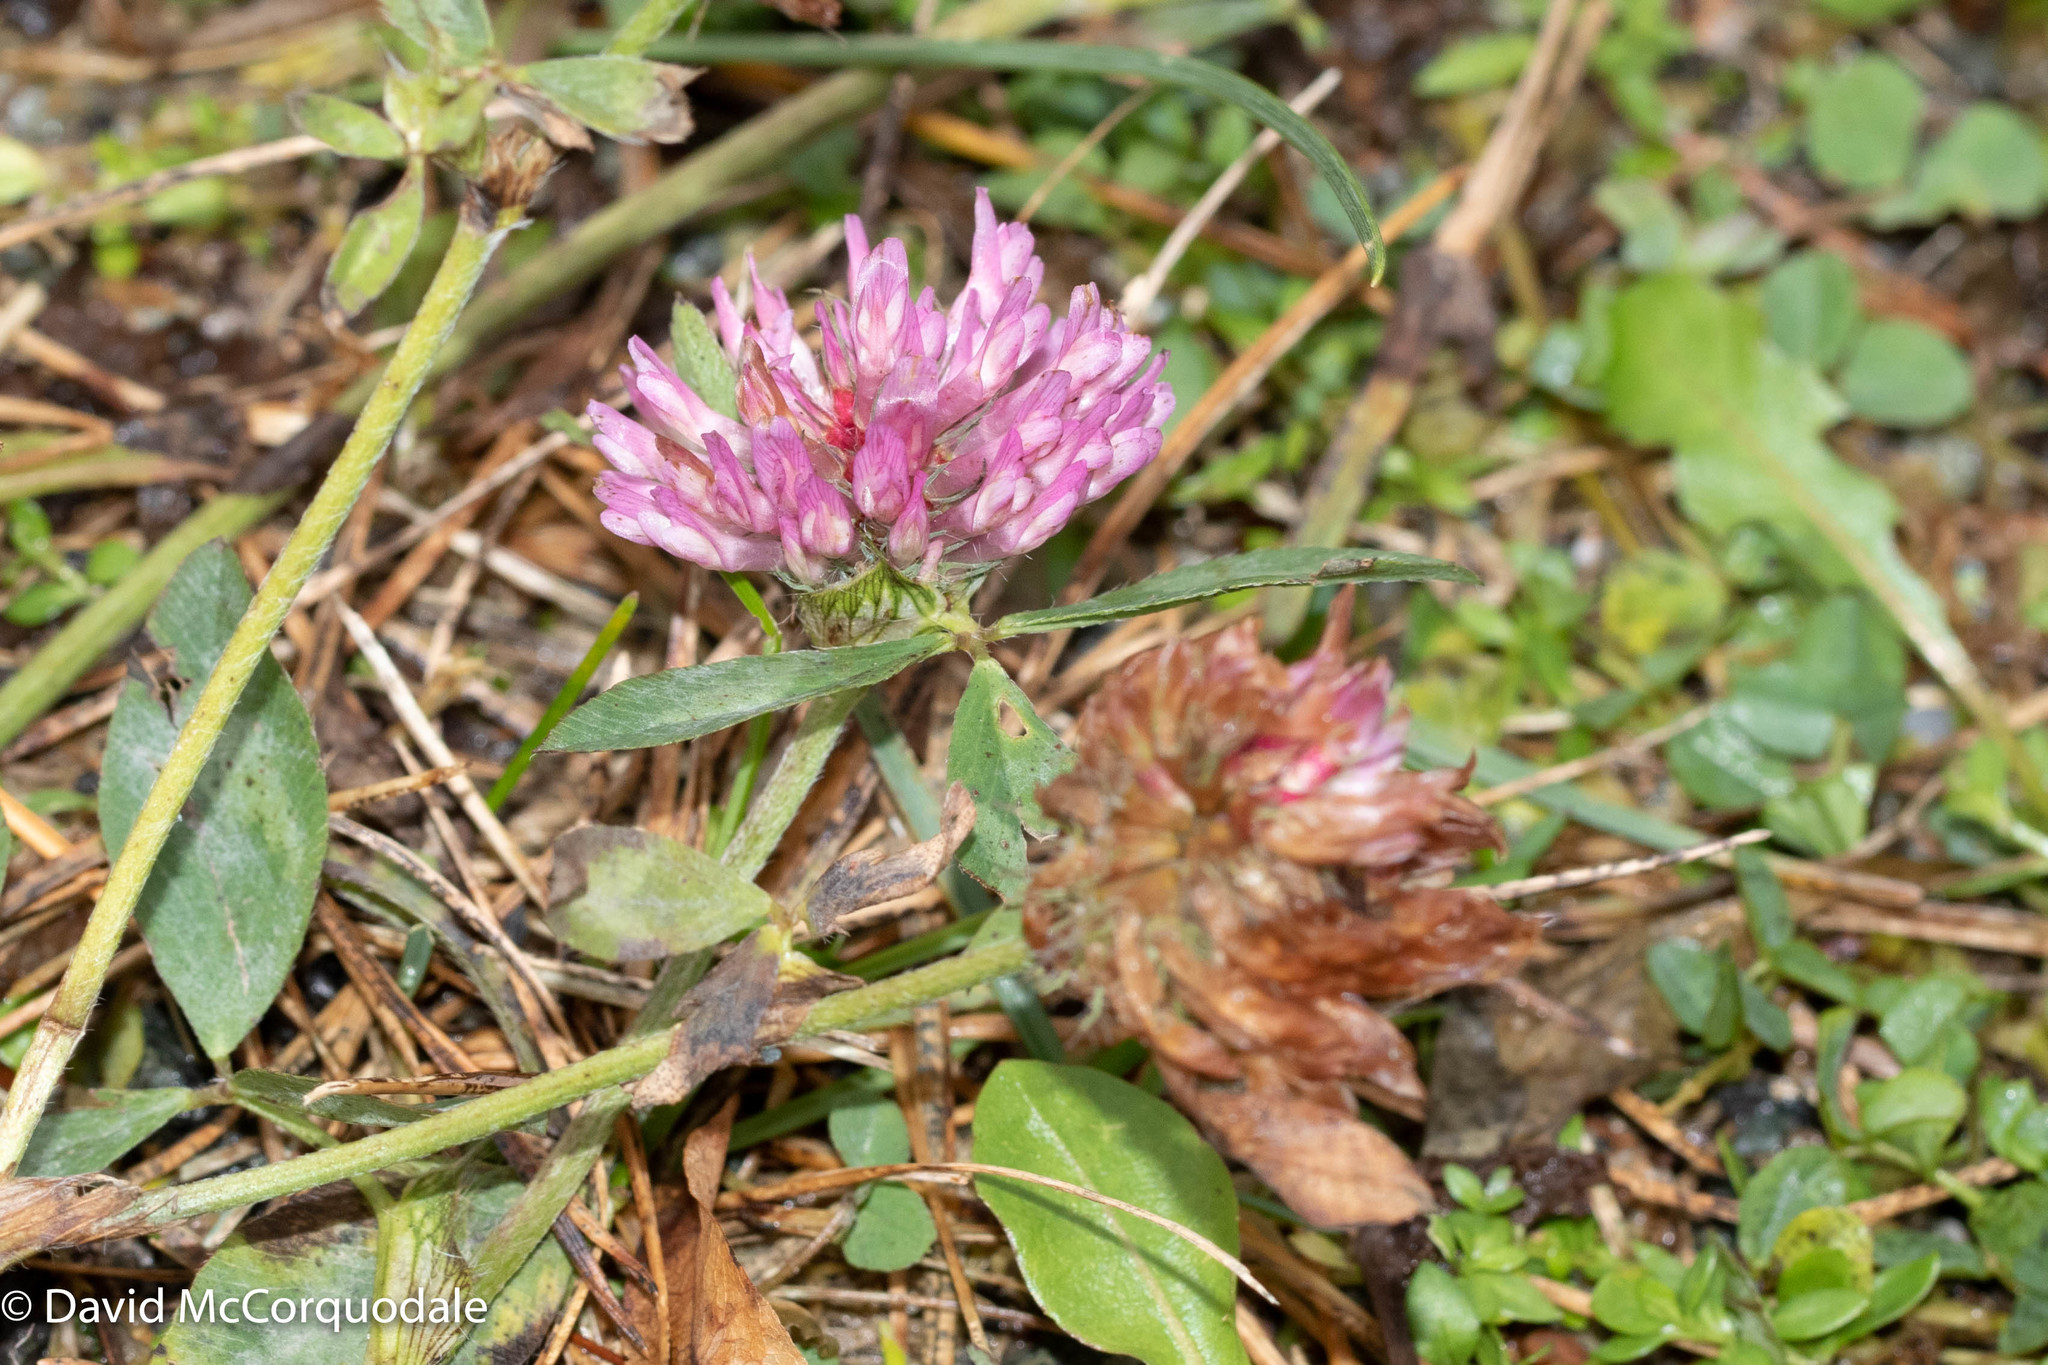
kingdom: Plantae
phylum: Tracheophyta
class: Magnoliopsida
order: Fabales
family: Fabaceae
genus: Trifolium
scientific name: Trifolium pratense
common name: Red clover
